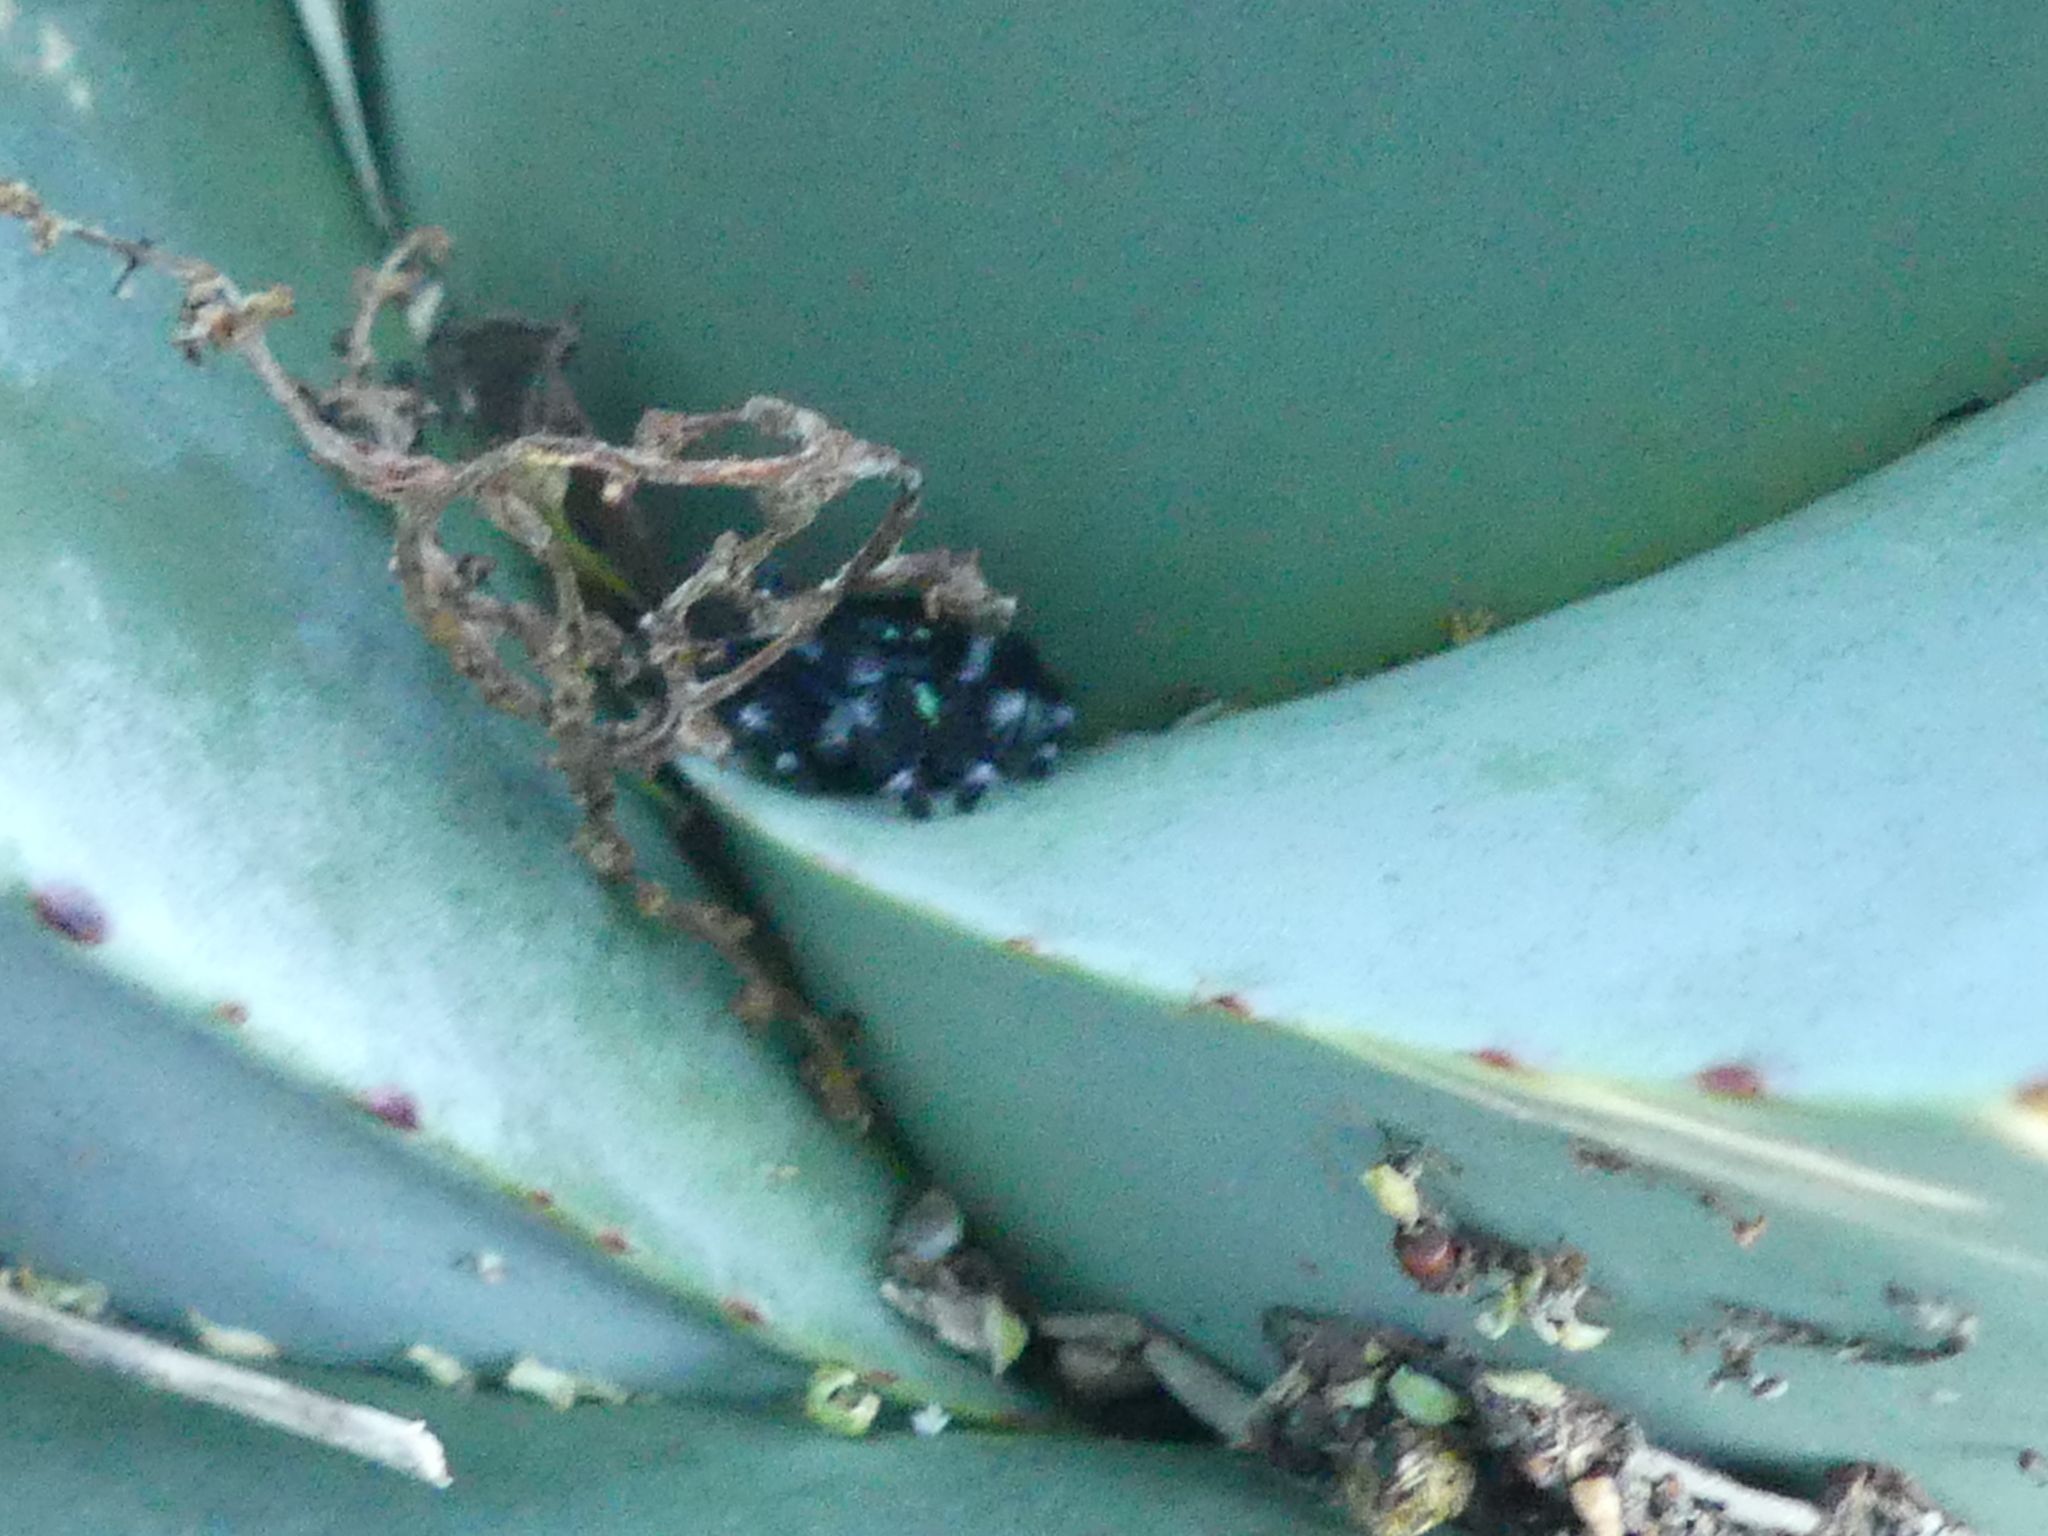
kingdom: Animalia
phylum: Arthropoda
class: Arachnida
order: Araneae
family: Salticidae
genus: Phidippus
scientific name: Phidippus audax
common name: Bold jumper
